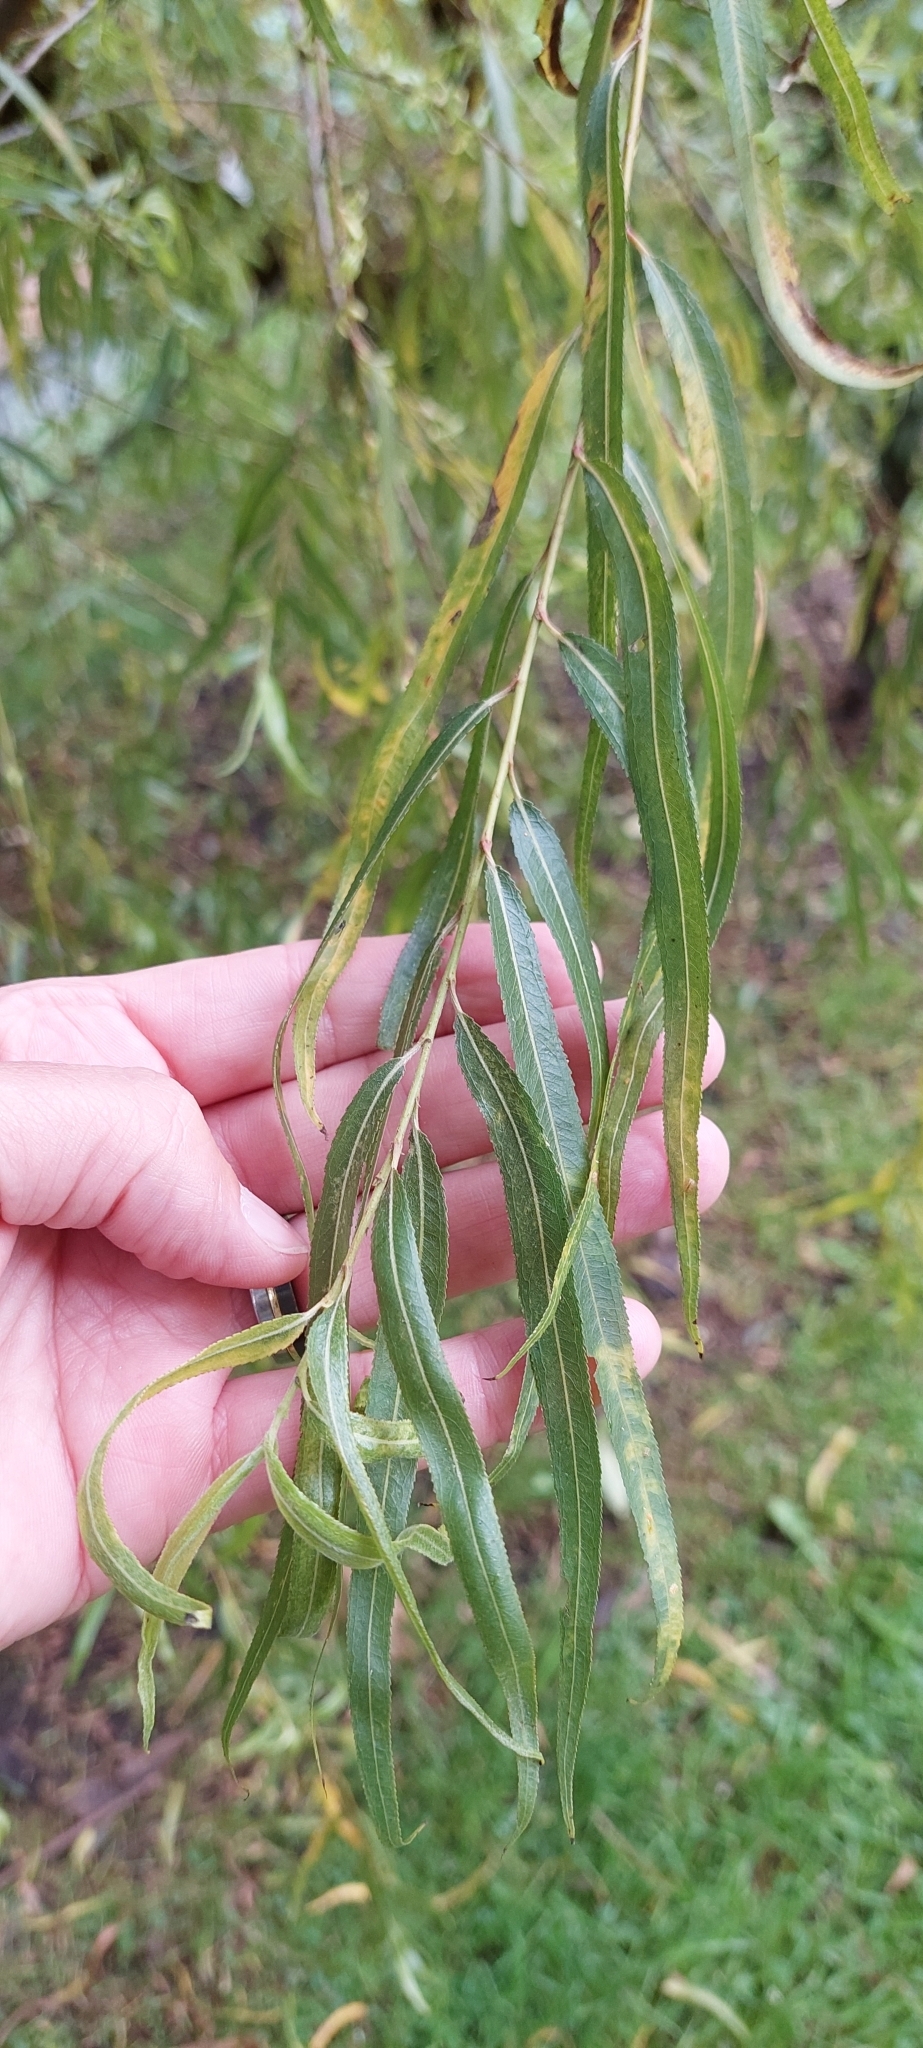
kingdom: Plantae
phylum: Tracheophyta
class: Magnoliopsida
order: Malpighiales
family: Salicaceae
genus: Salix
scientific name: Salix humboldtiana
